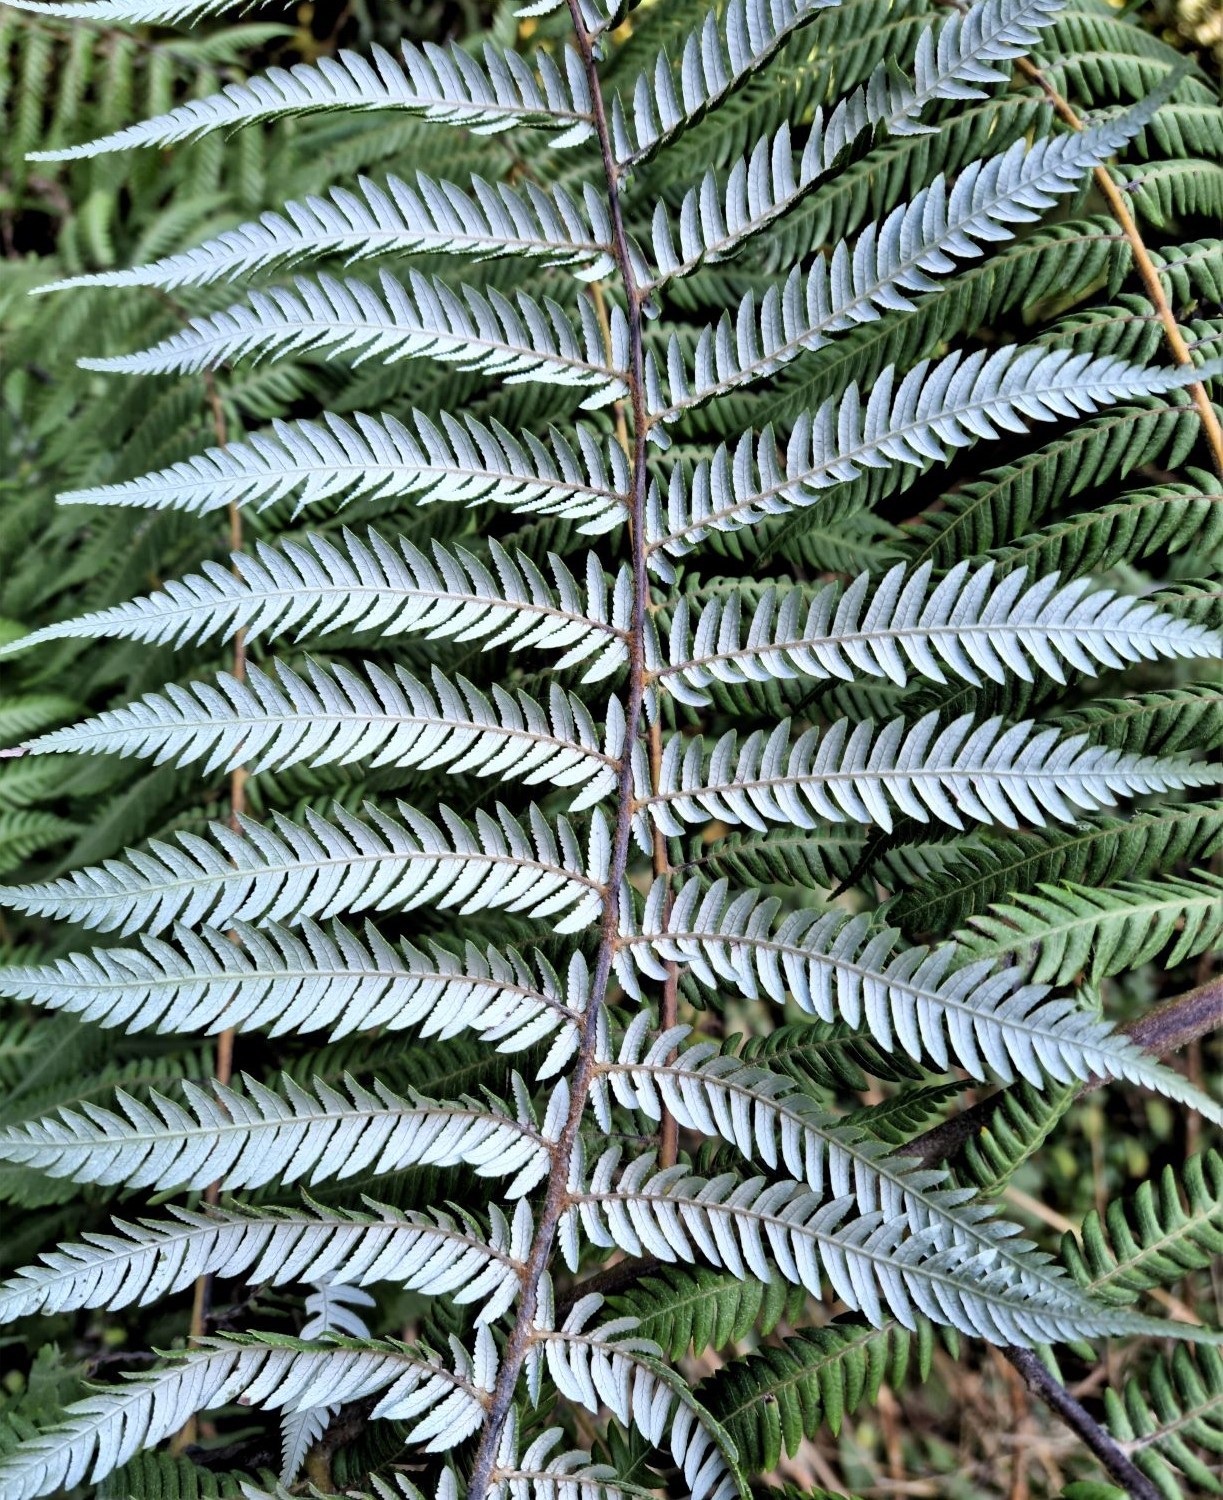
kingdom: Plantae
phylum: Tracheophyta
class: Polypodiopsida
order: Cyatheales
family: Cyatheaceae
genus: Alsophila
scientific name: Alsophila dealbata
